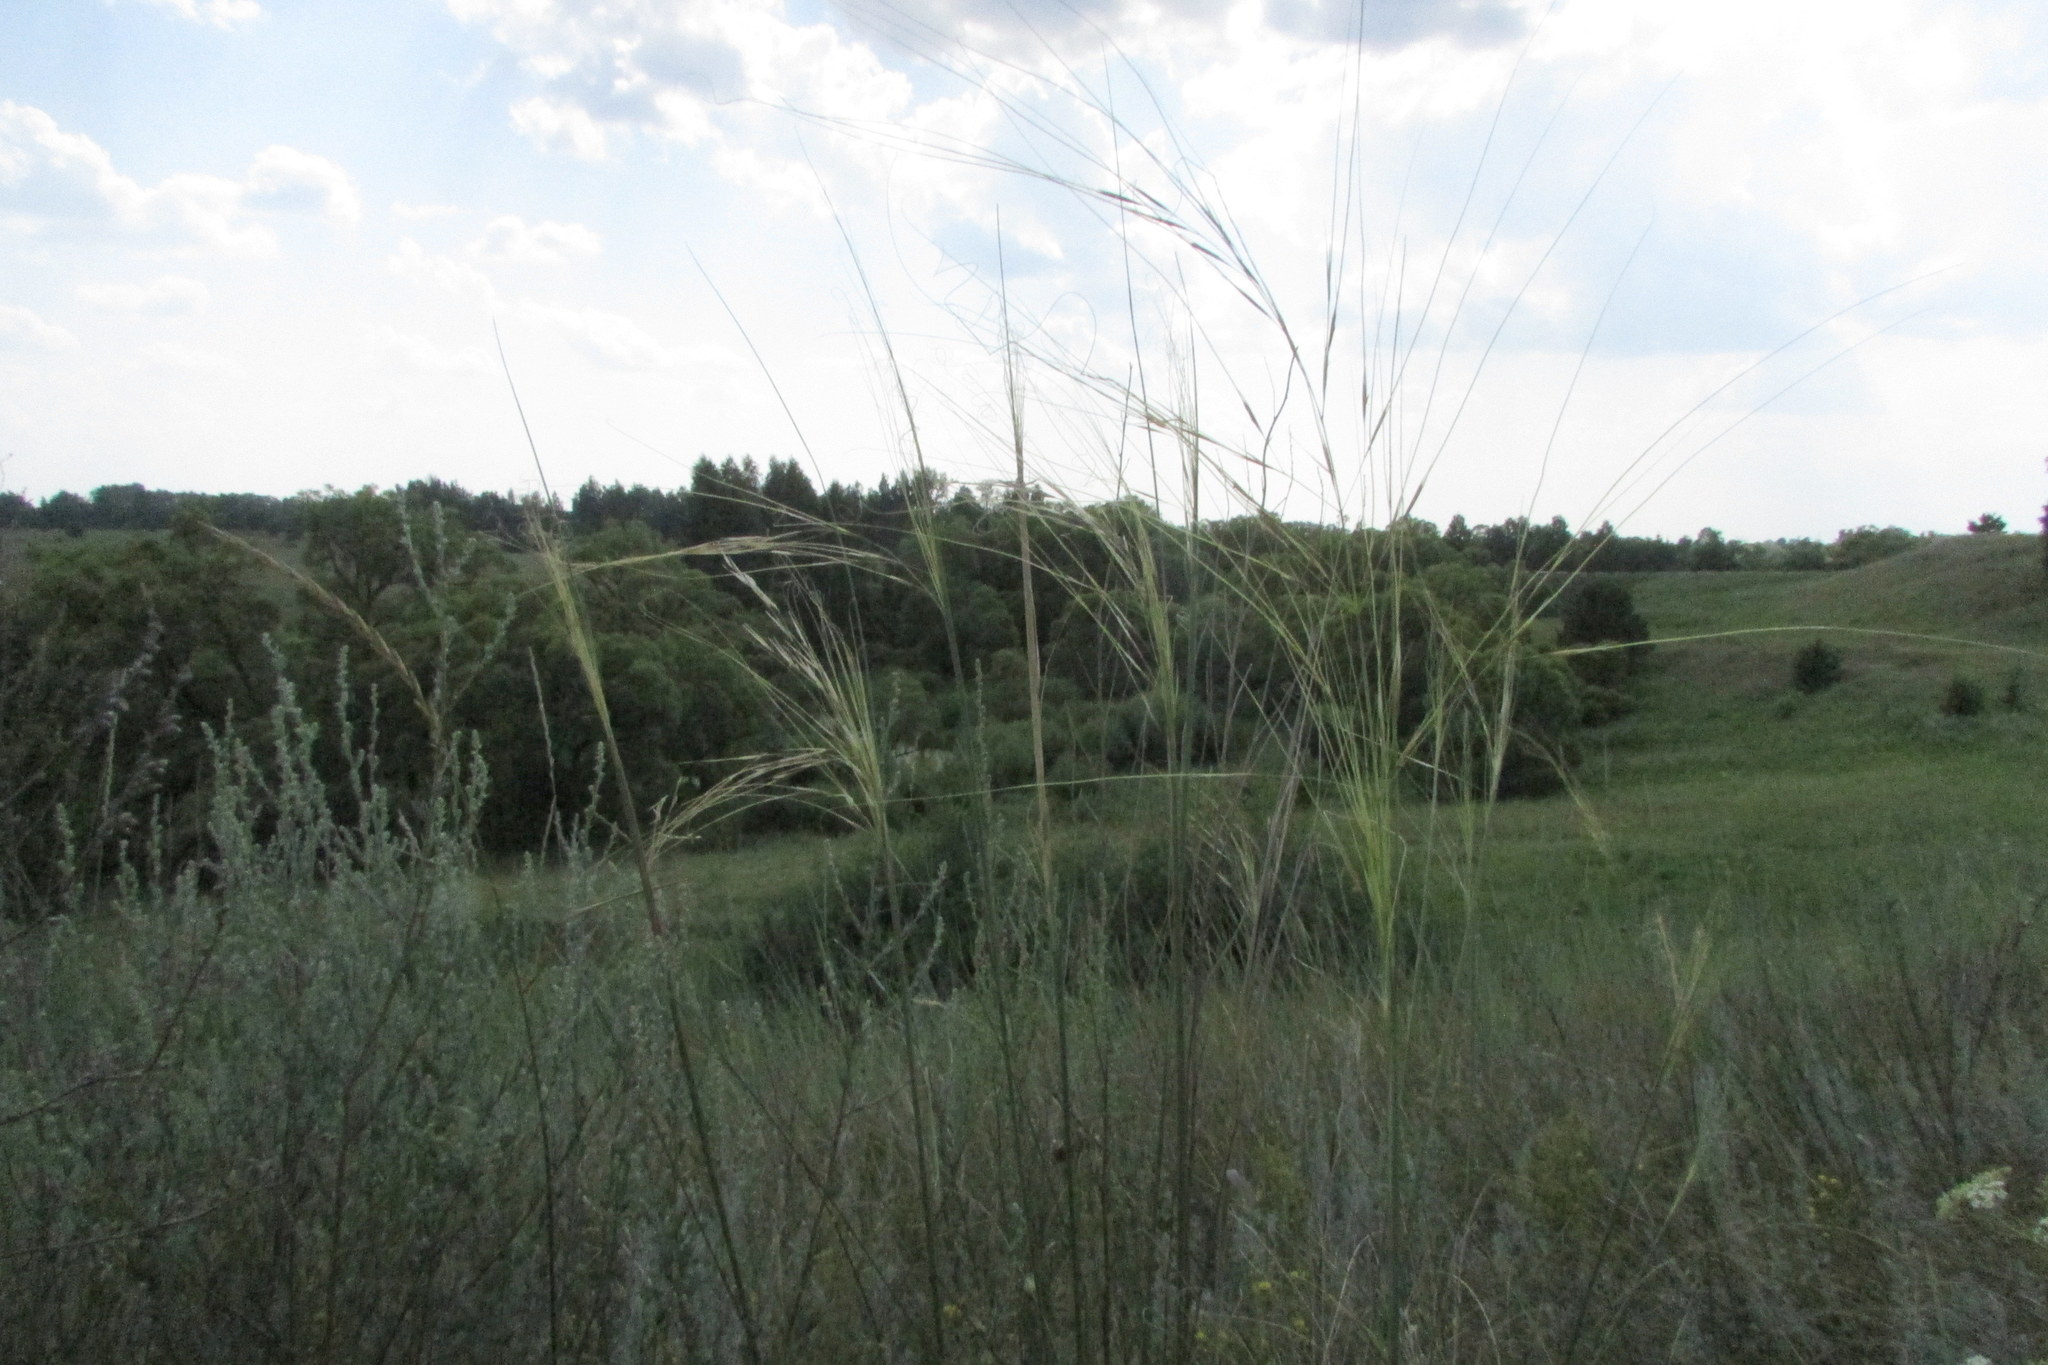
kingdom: Plantae
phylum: Tracheophyta
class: Liliopsida
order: Poales
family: Poaceae
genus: Stipa
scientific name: Stipa capillata
